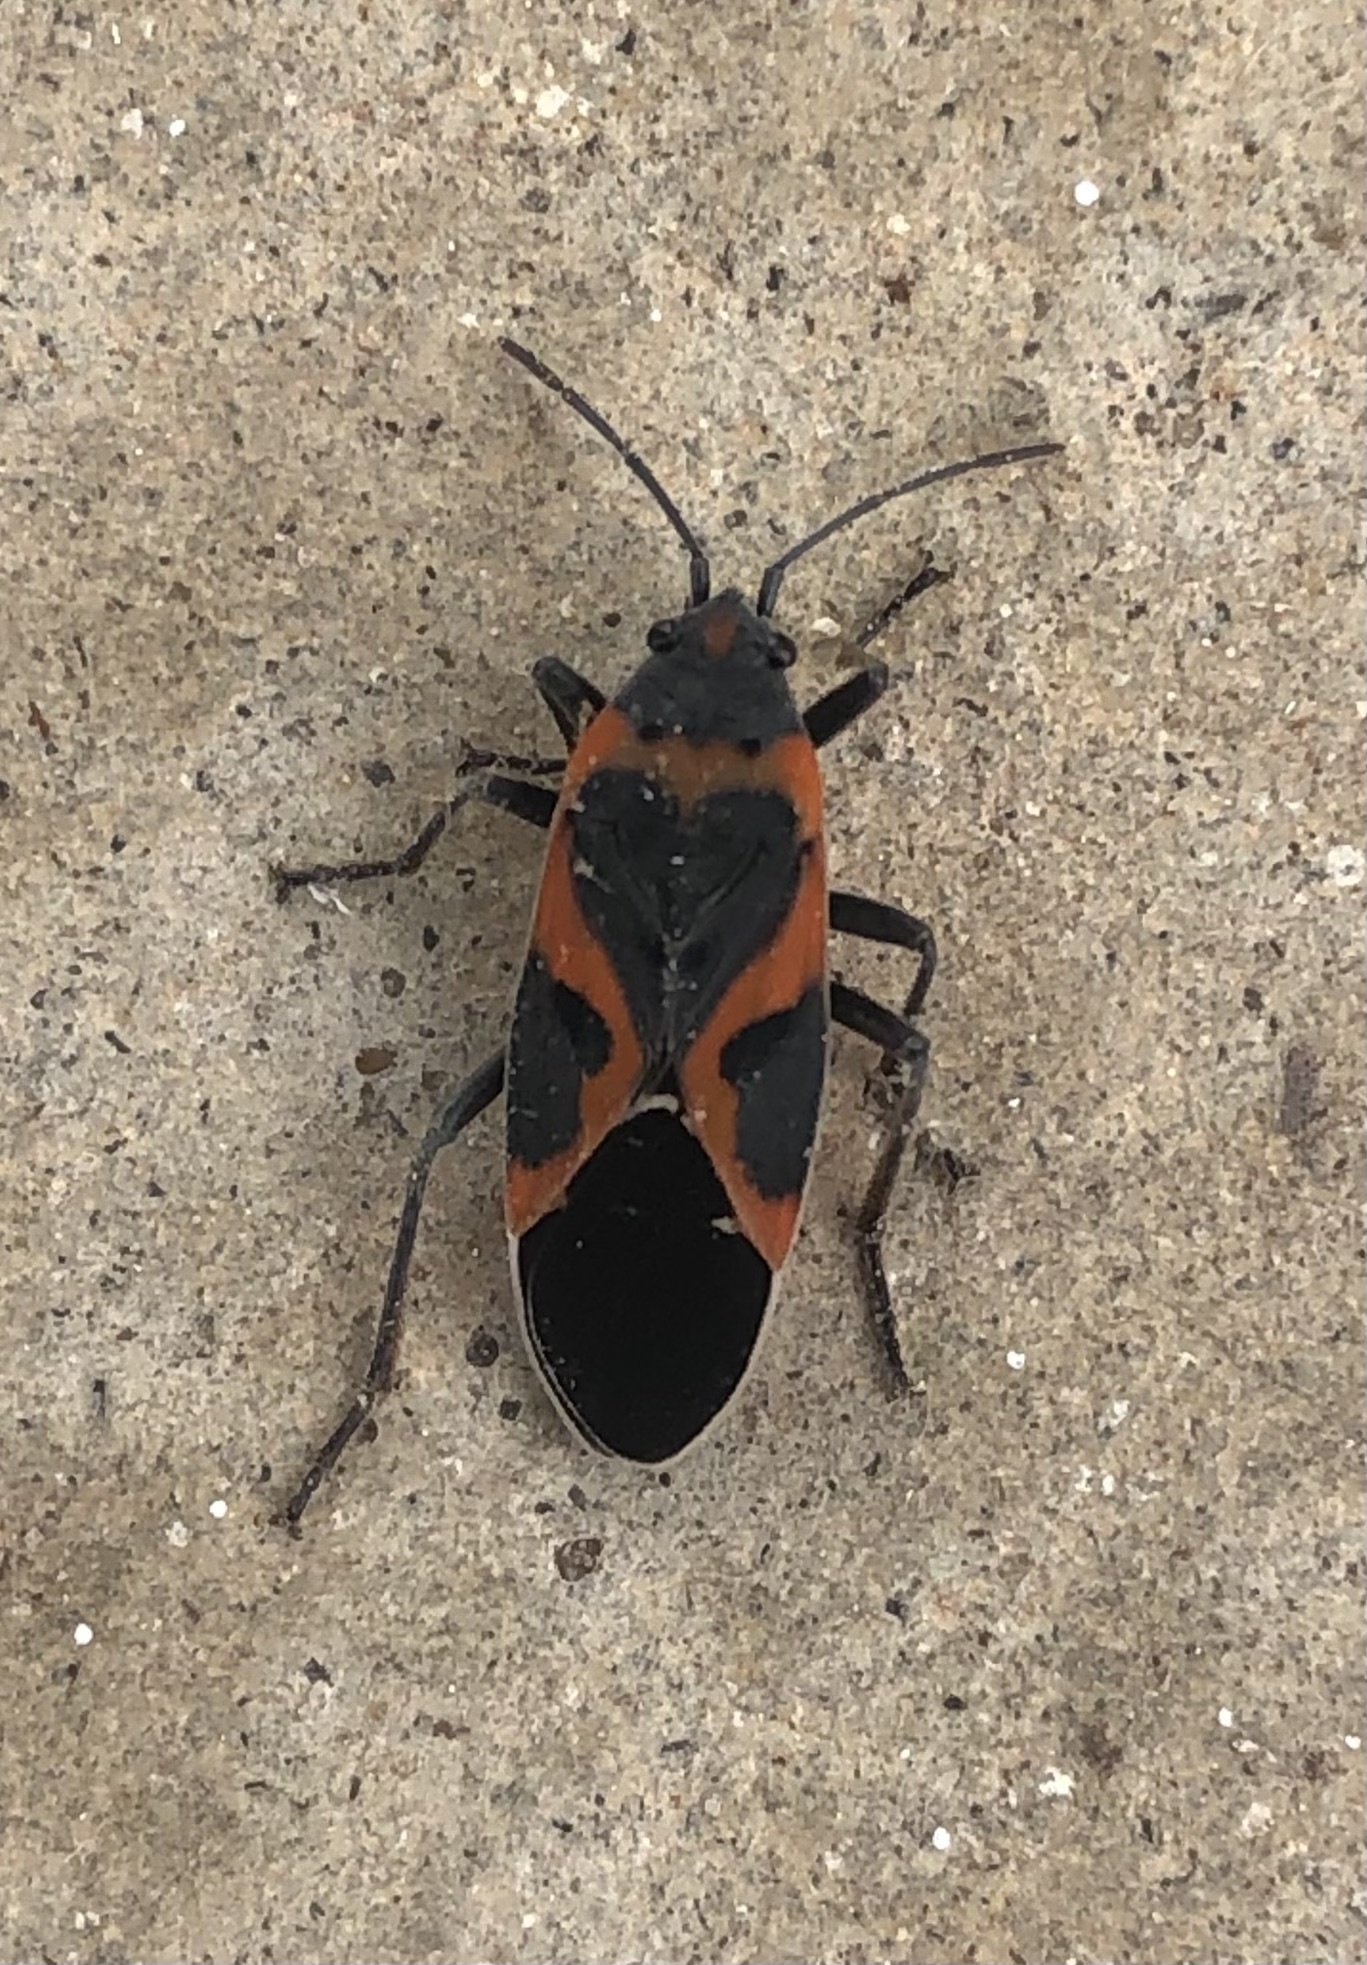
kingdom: Animalia
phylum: Arthropoda
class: Insecta
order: Hemiptera
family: Lygaeidae
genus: Lygaeus
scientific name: Lygaeus kalmii
